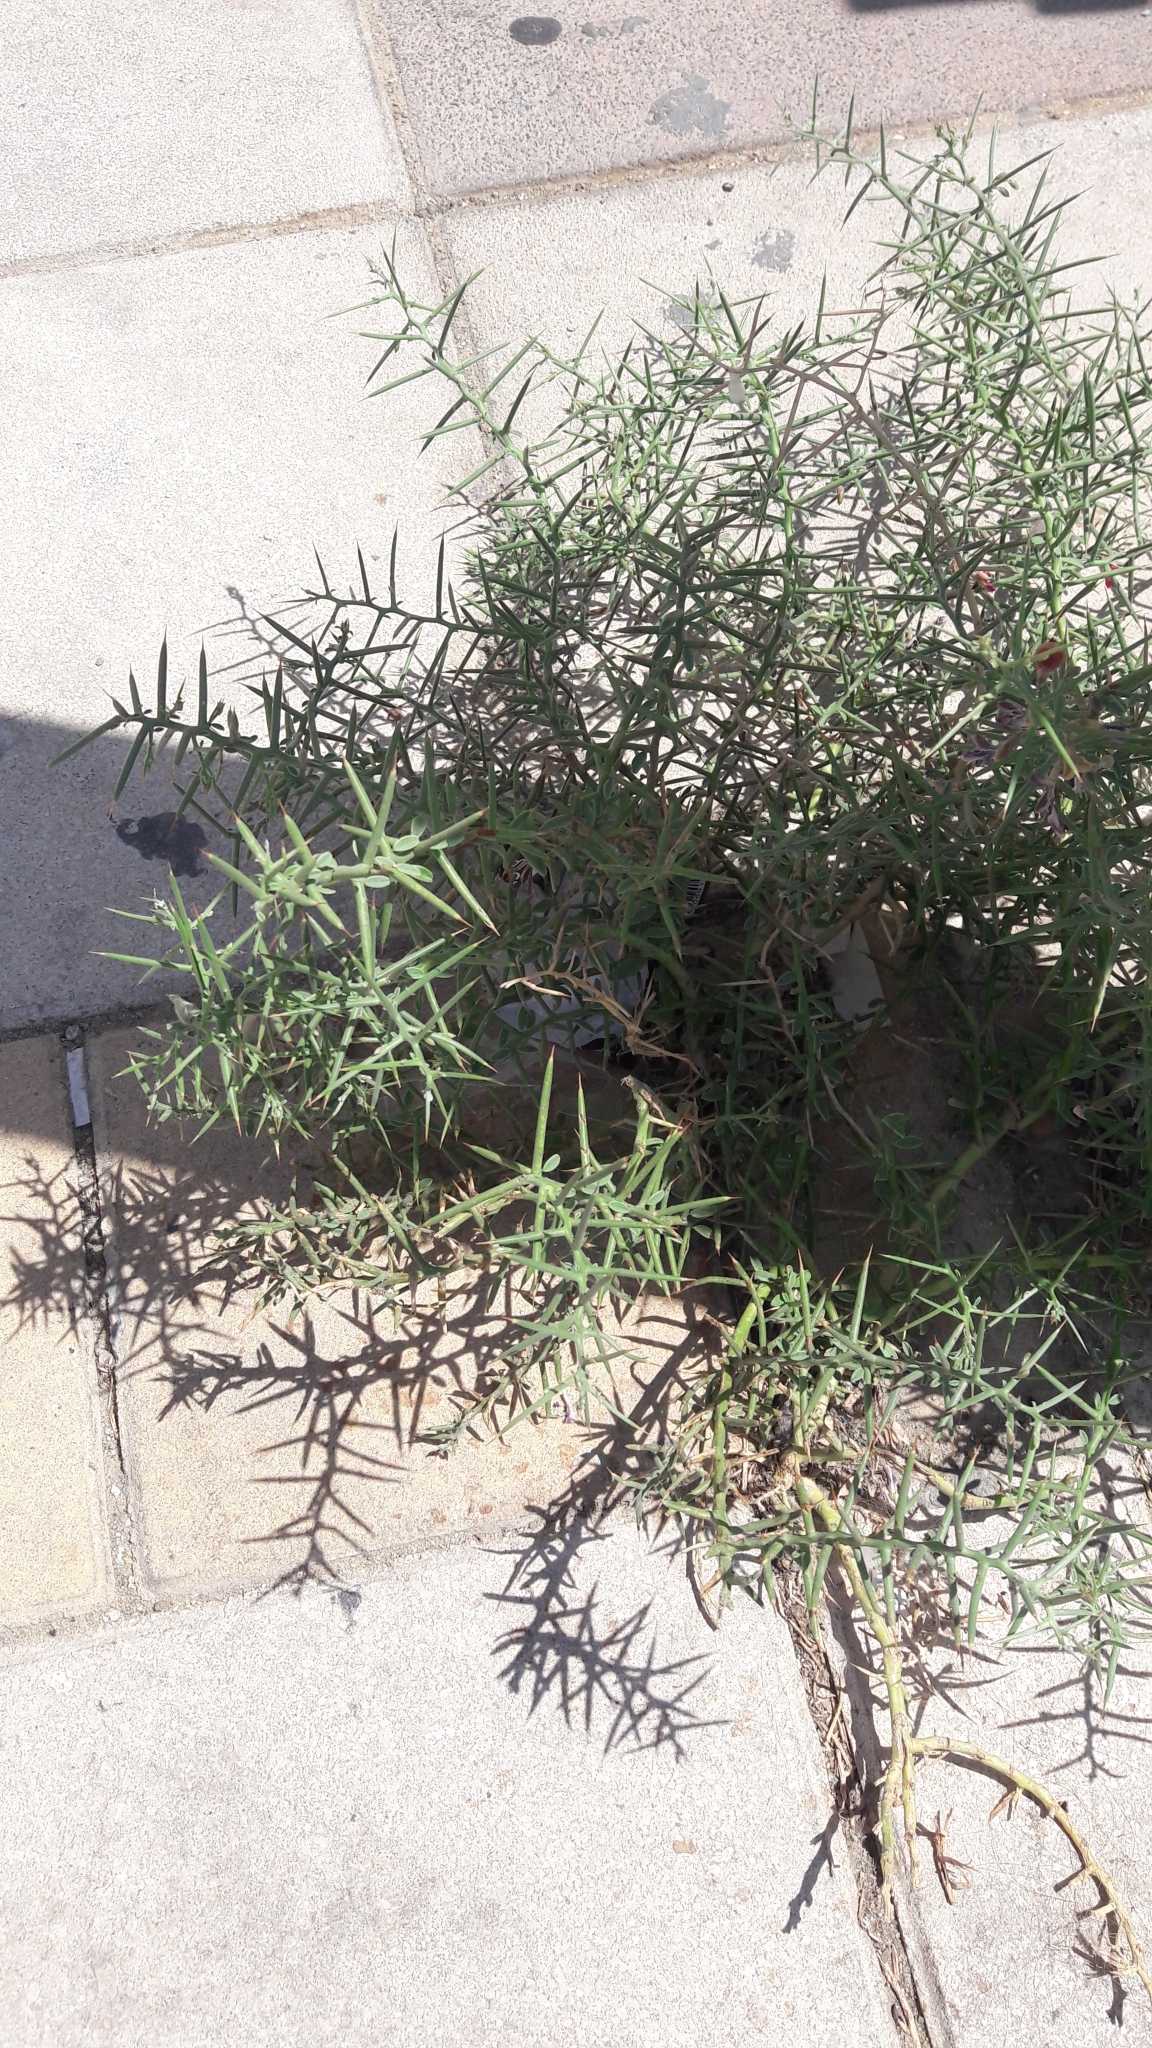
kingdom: Plantae
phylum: Tracheophyta
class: Magnoliopsida
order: Fabales
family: Fabaceae
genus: Alhagi
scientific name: Alhagi graecorum
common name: Persian mannaplant
